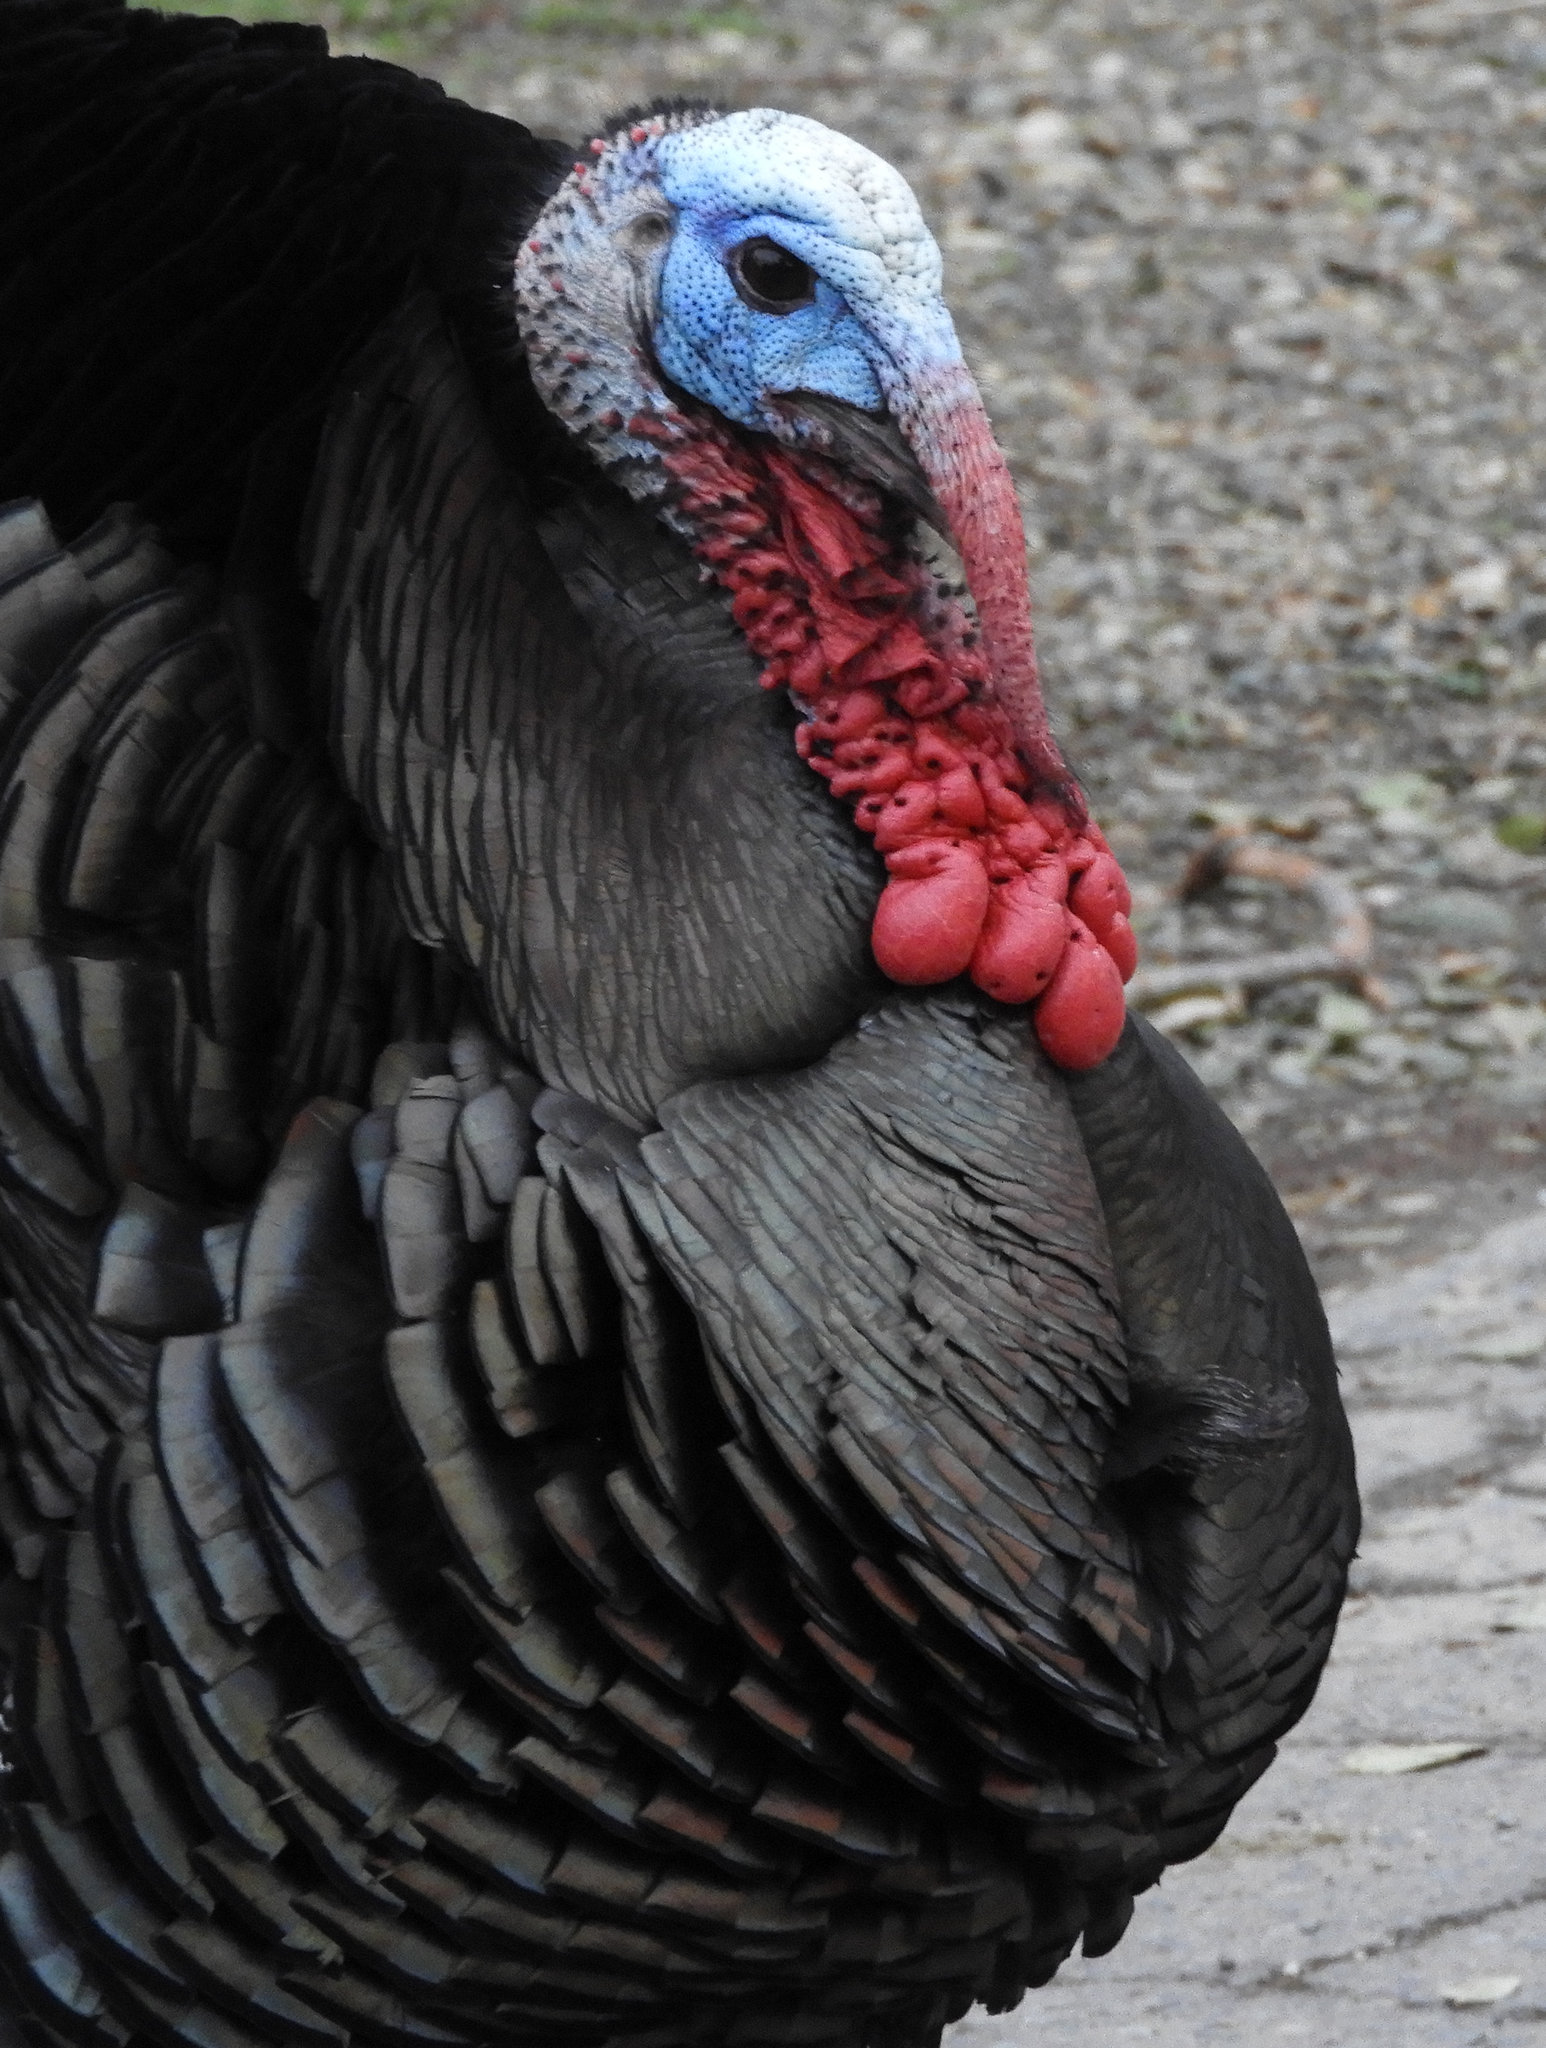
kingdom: Animalia
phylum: Chordata
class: Aves
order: Galliformes
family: Phasianidae
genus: Meleagris
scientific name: Meleagris gallopavo
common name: Wild turkey
